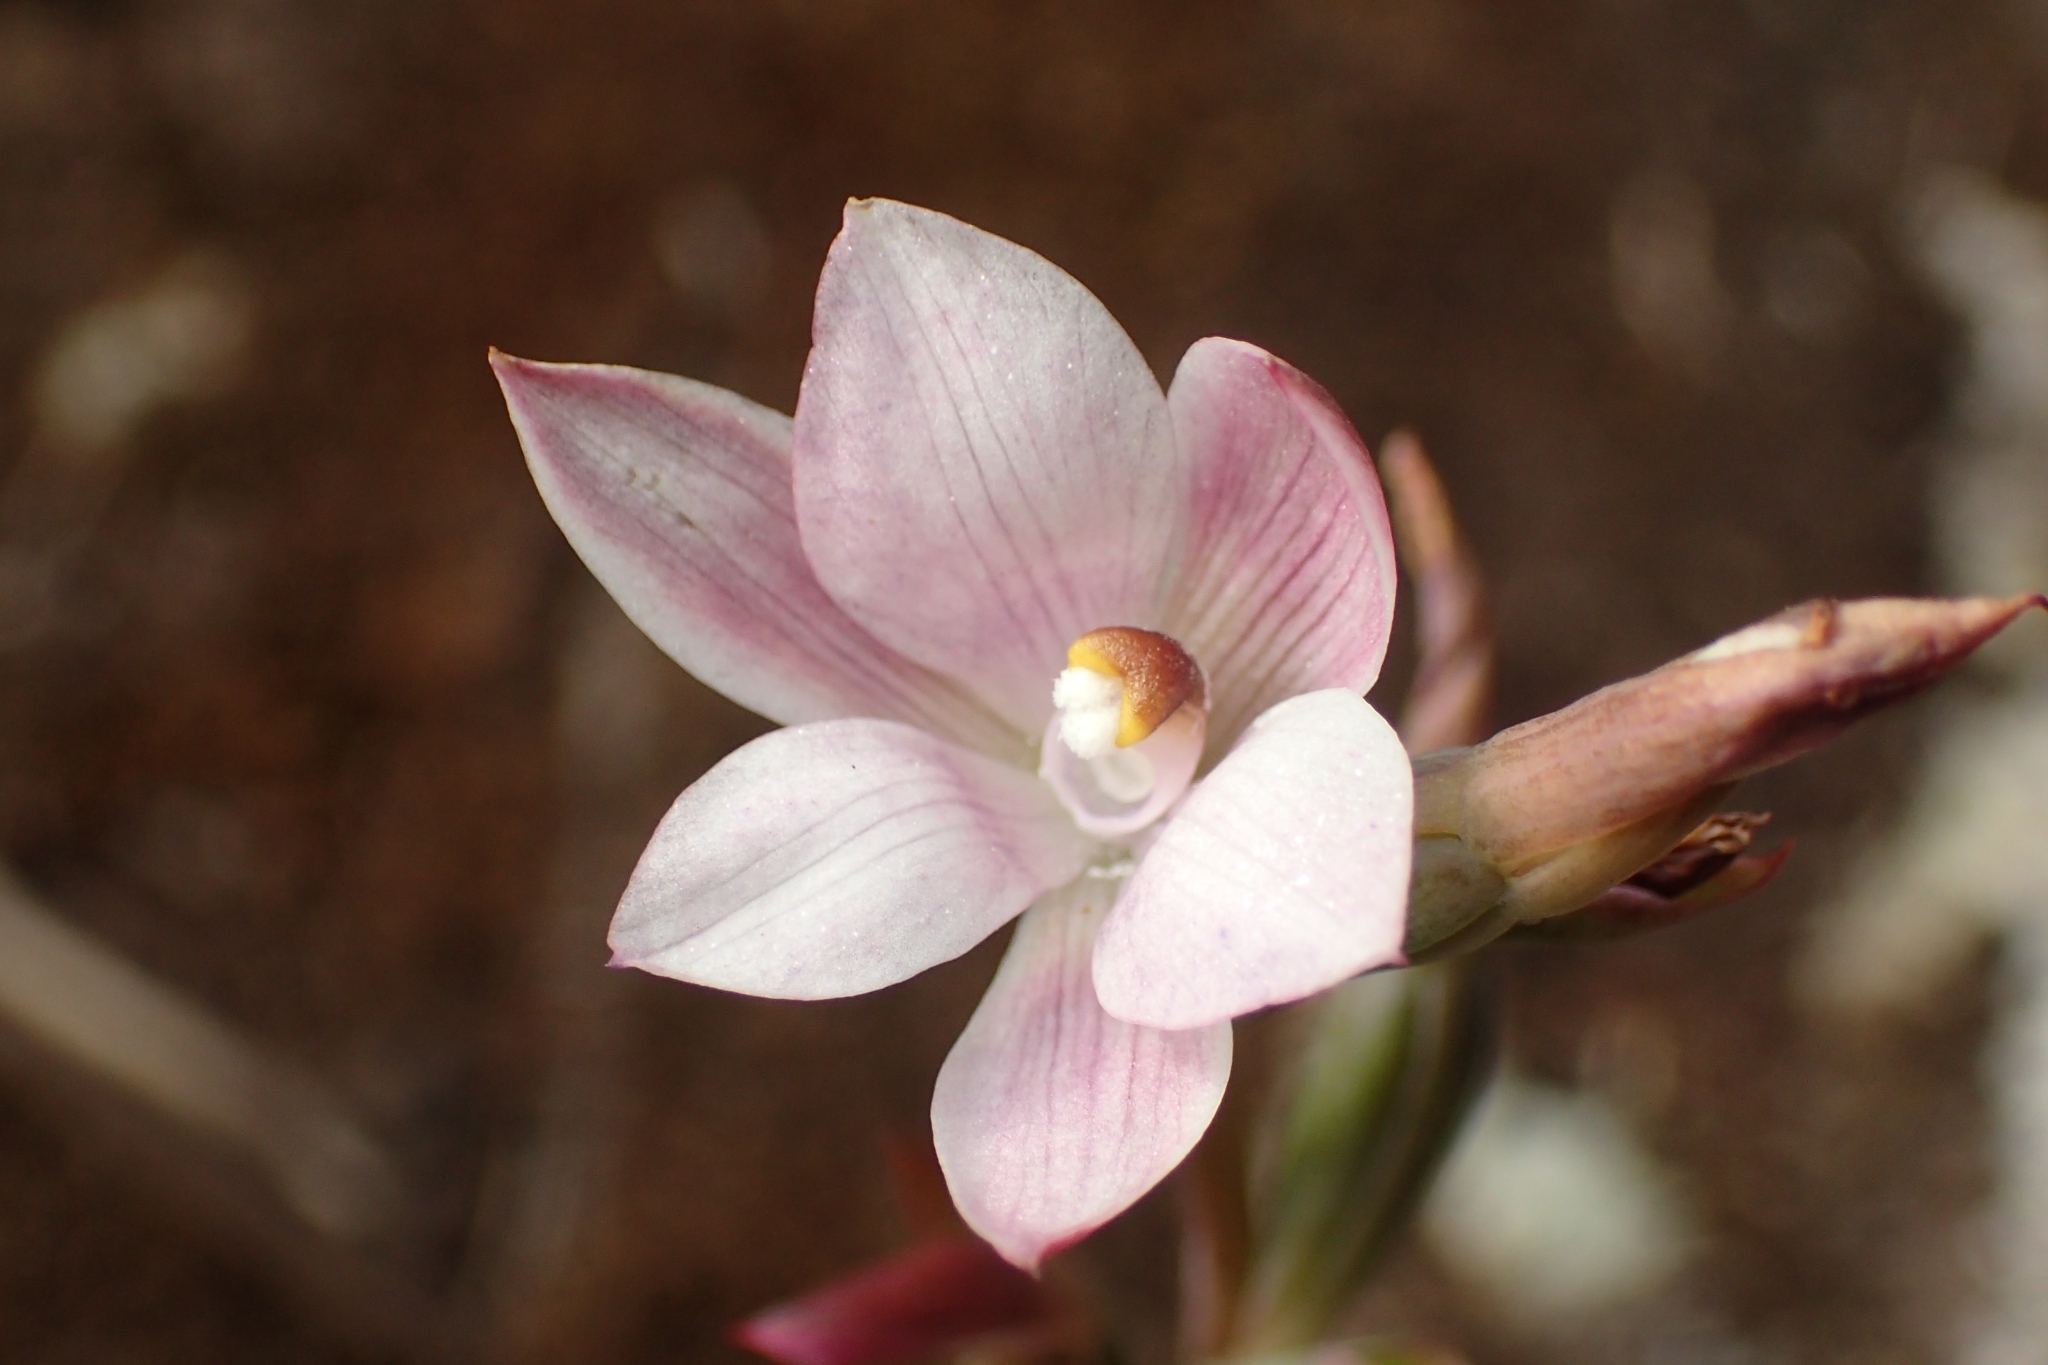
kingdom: Plantae
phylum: Tracheophyta
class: Liliopsida
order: Asparagales
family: Orchidaceae
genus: Thelymitra
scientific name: Thelymitra longifolia
